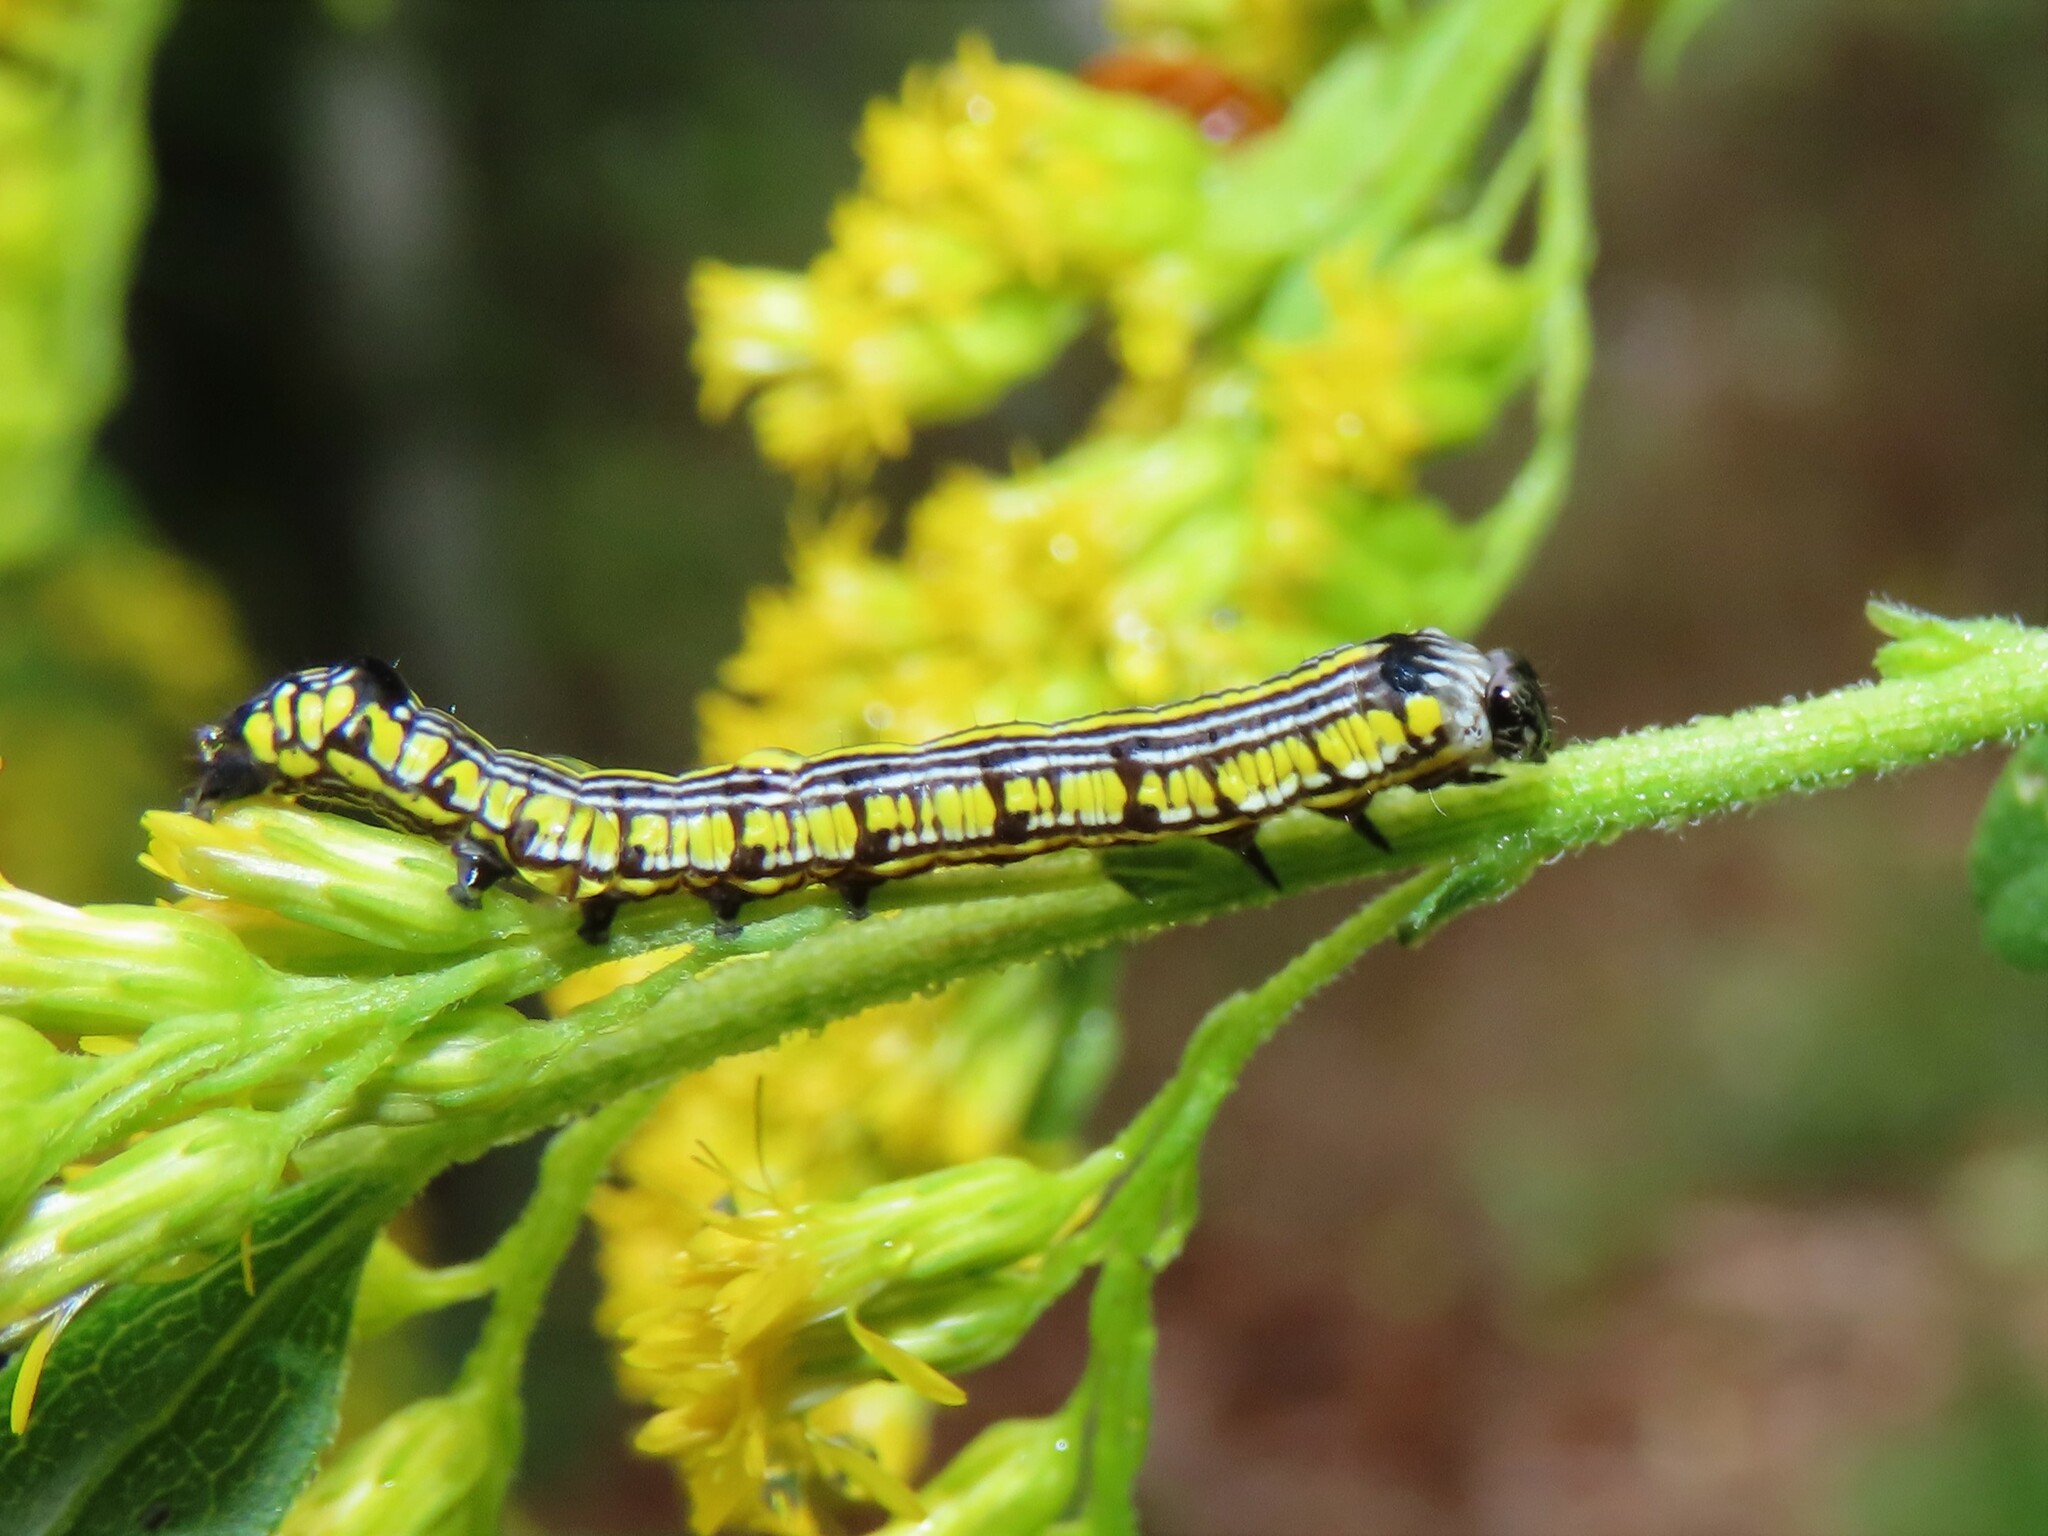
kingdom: Animalia
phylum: Arthropoda
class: Insecta
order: Lepidoptera
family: Noctuidae
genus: Cucullia
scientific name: Cucullia convexipennis
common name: Brown-hooded owlet
